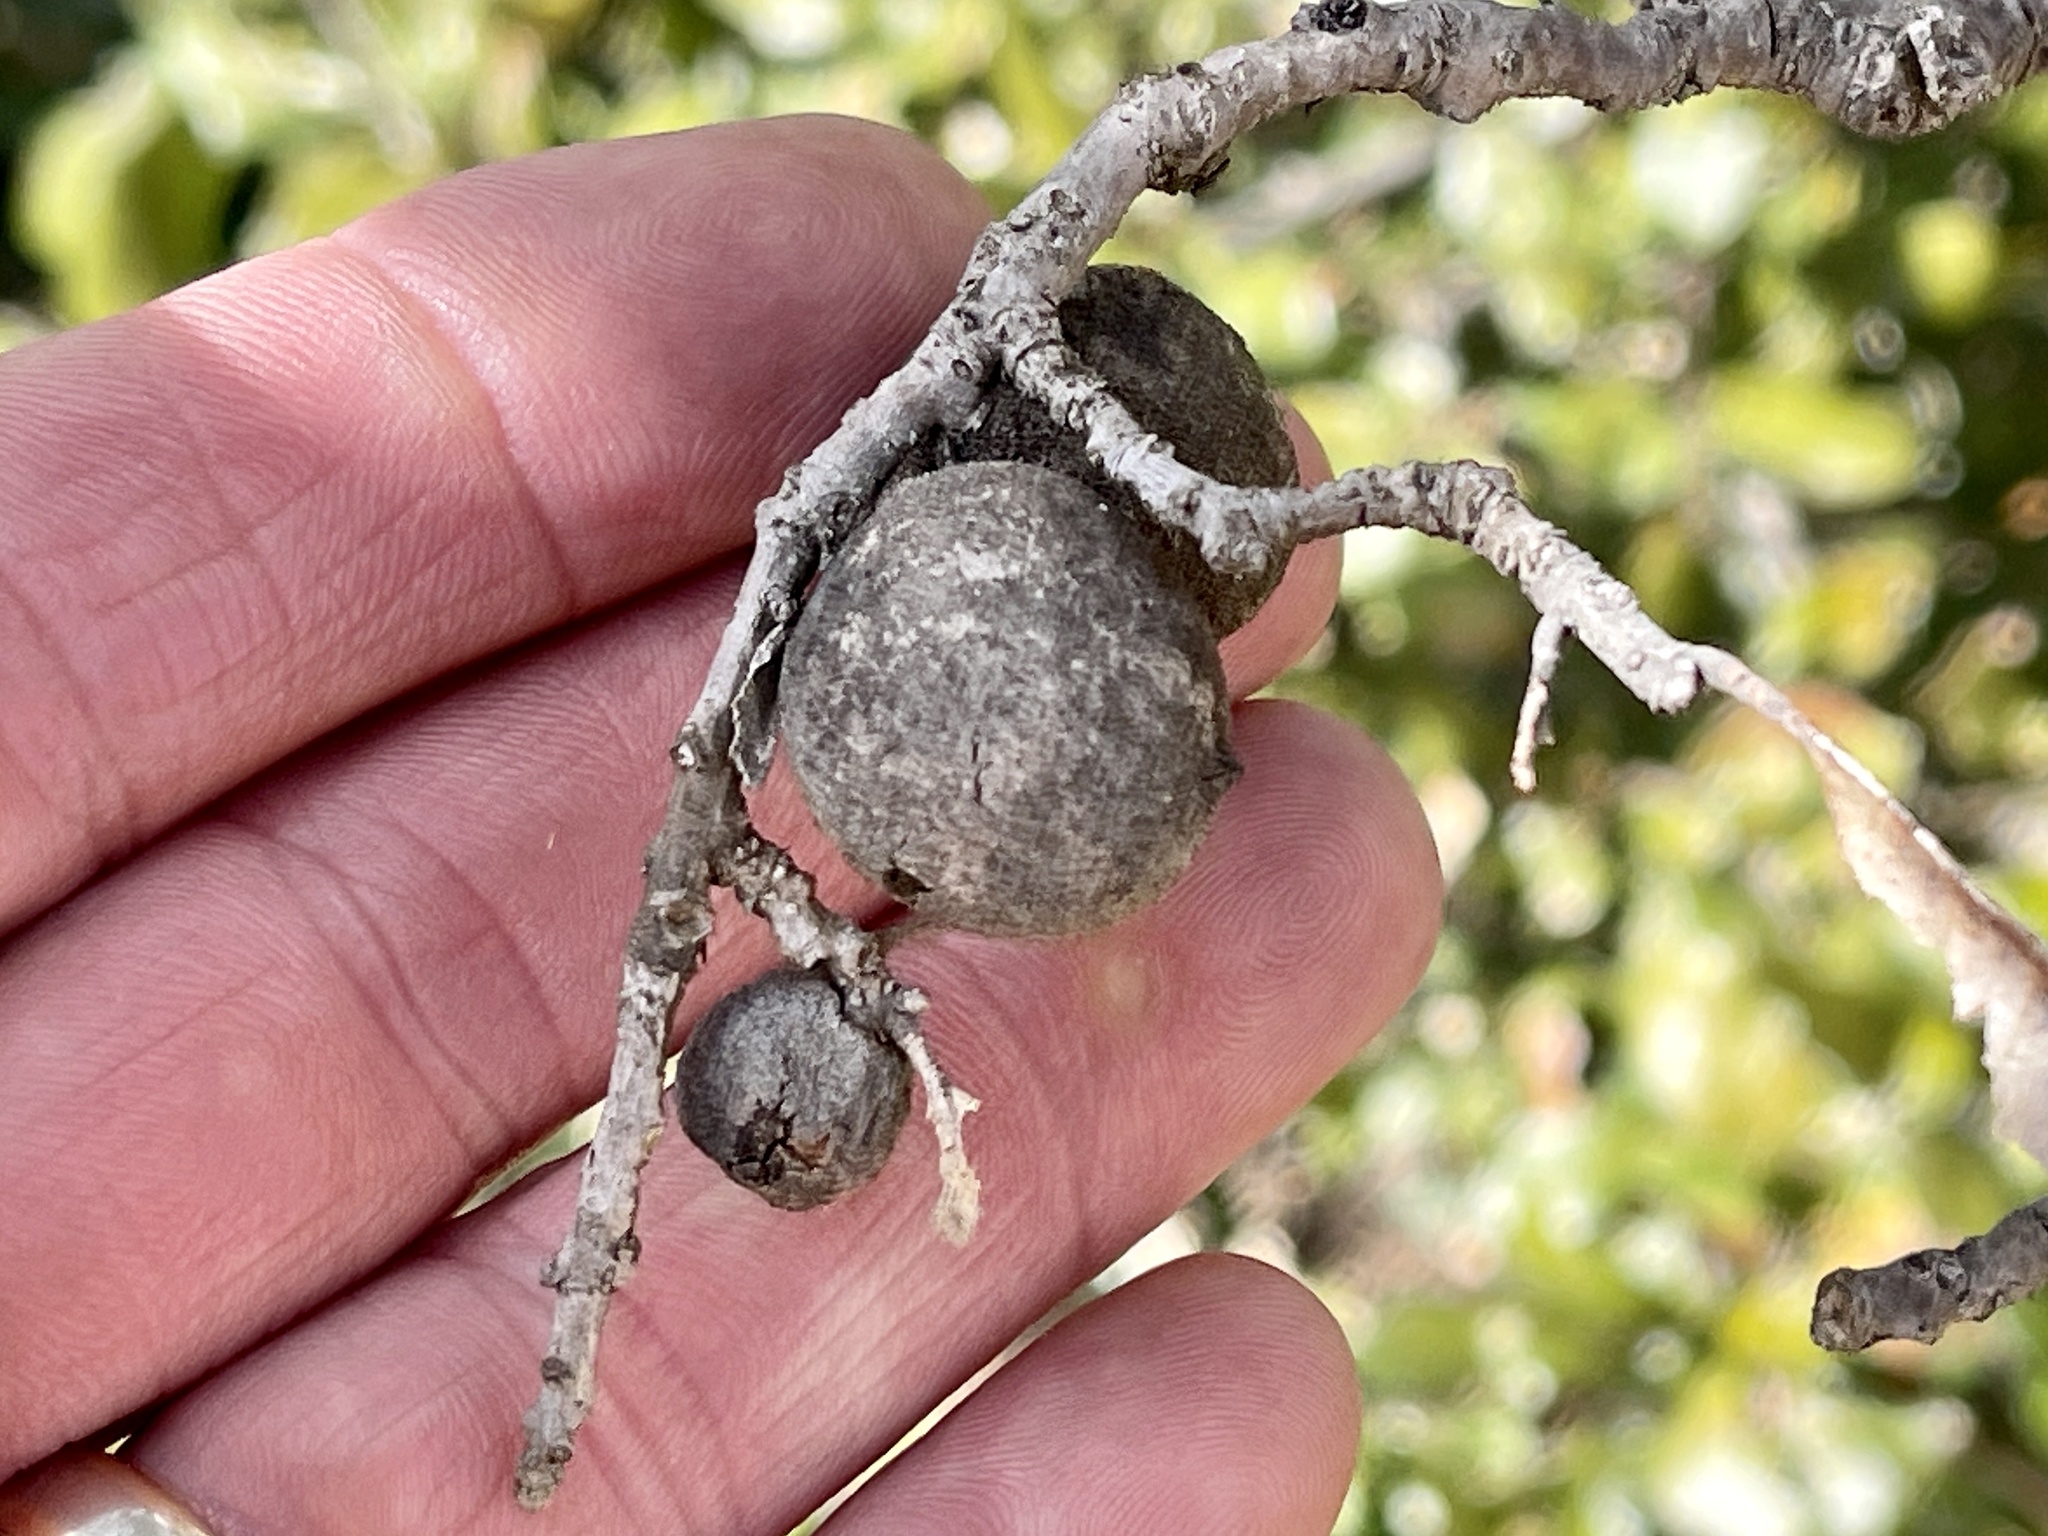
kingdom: Animalia
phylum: Arthropoda
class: Insecta
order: Hymenoptera
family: Cynipidae
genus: Disholcaspis
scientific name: Disholcaspis
